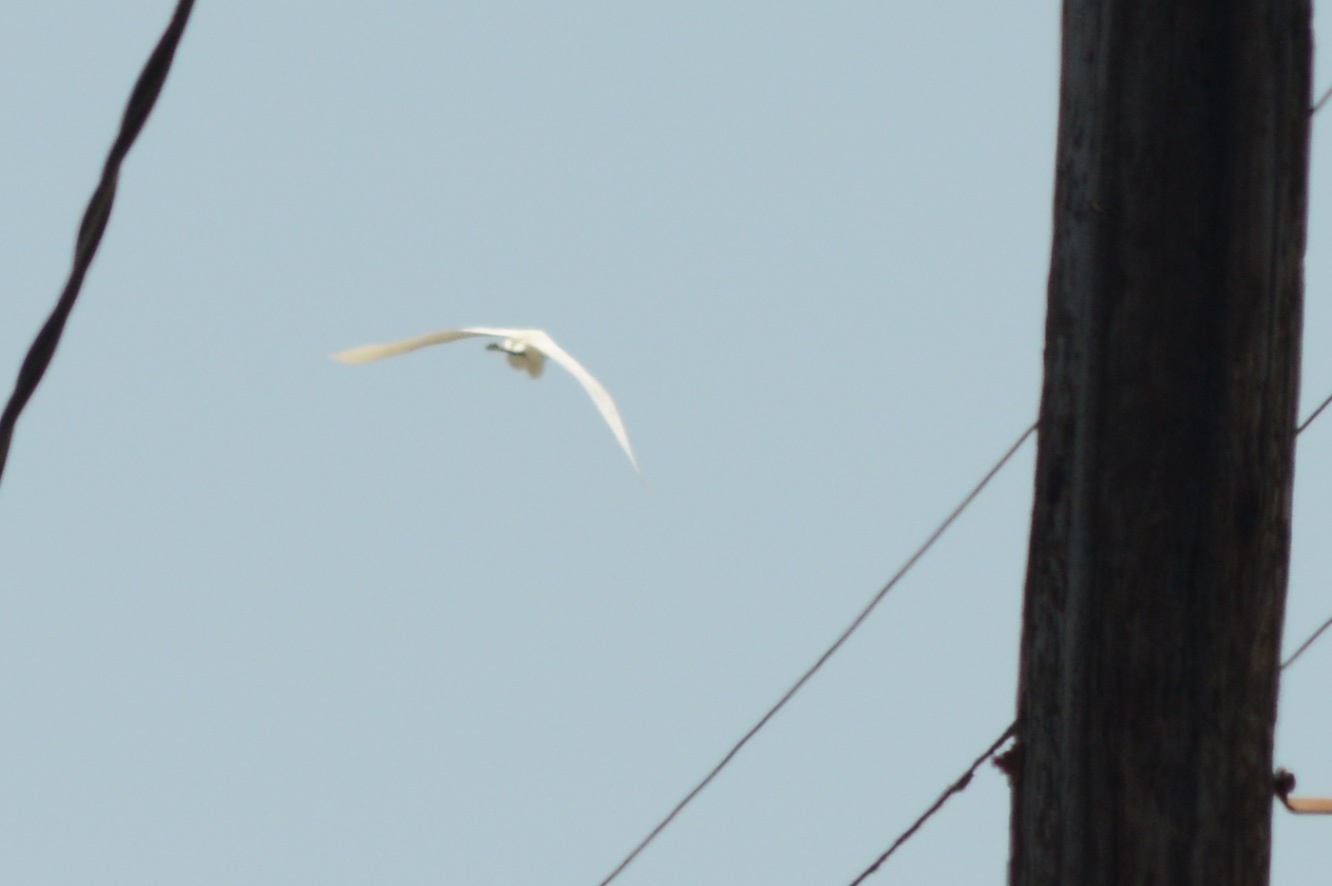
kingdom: Animalia
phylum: Chordata
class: Aves
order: Pelecaniformes
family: Ardeidae
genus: Ardea
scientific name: Ardea alba
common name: Great egret
